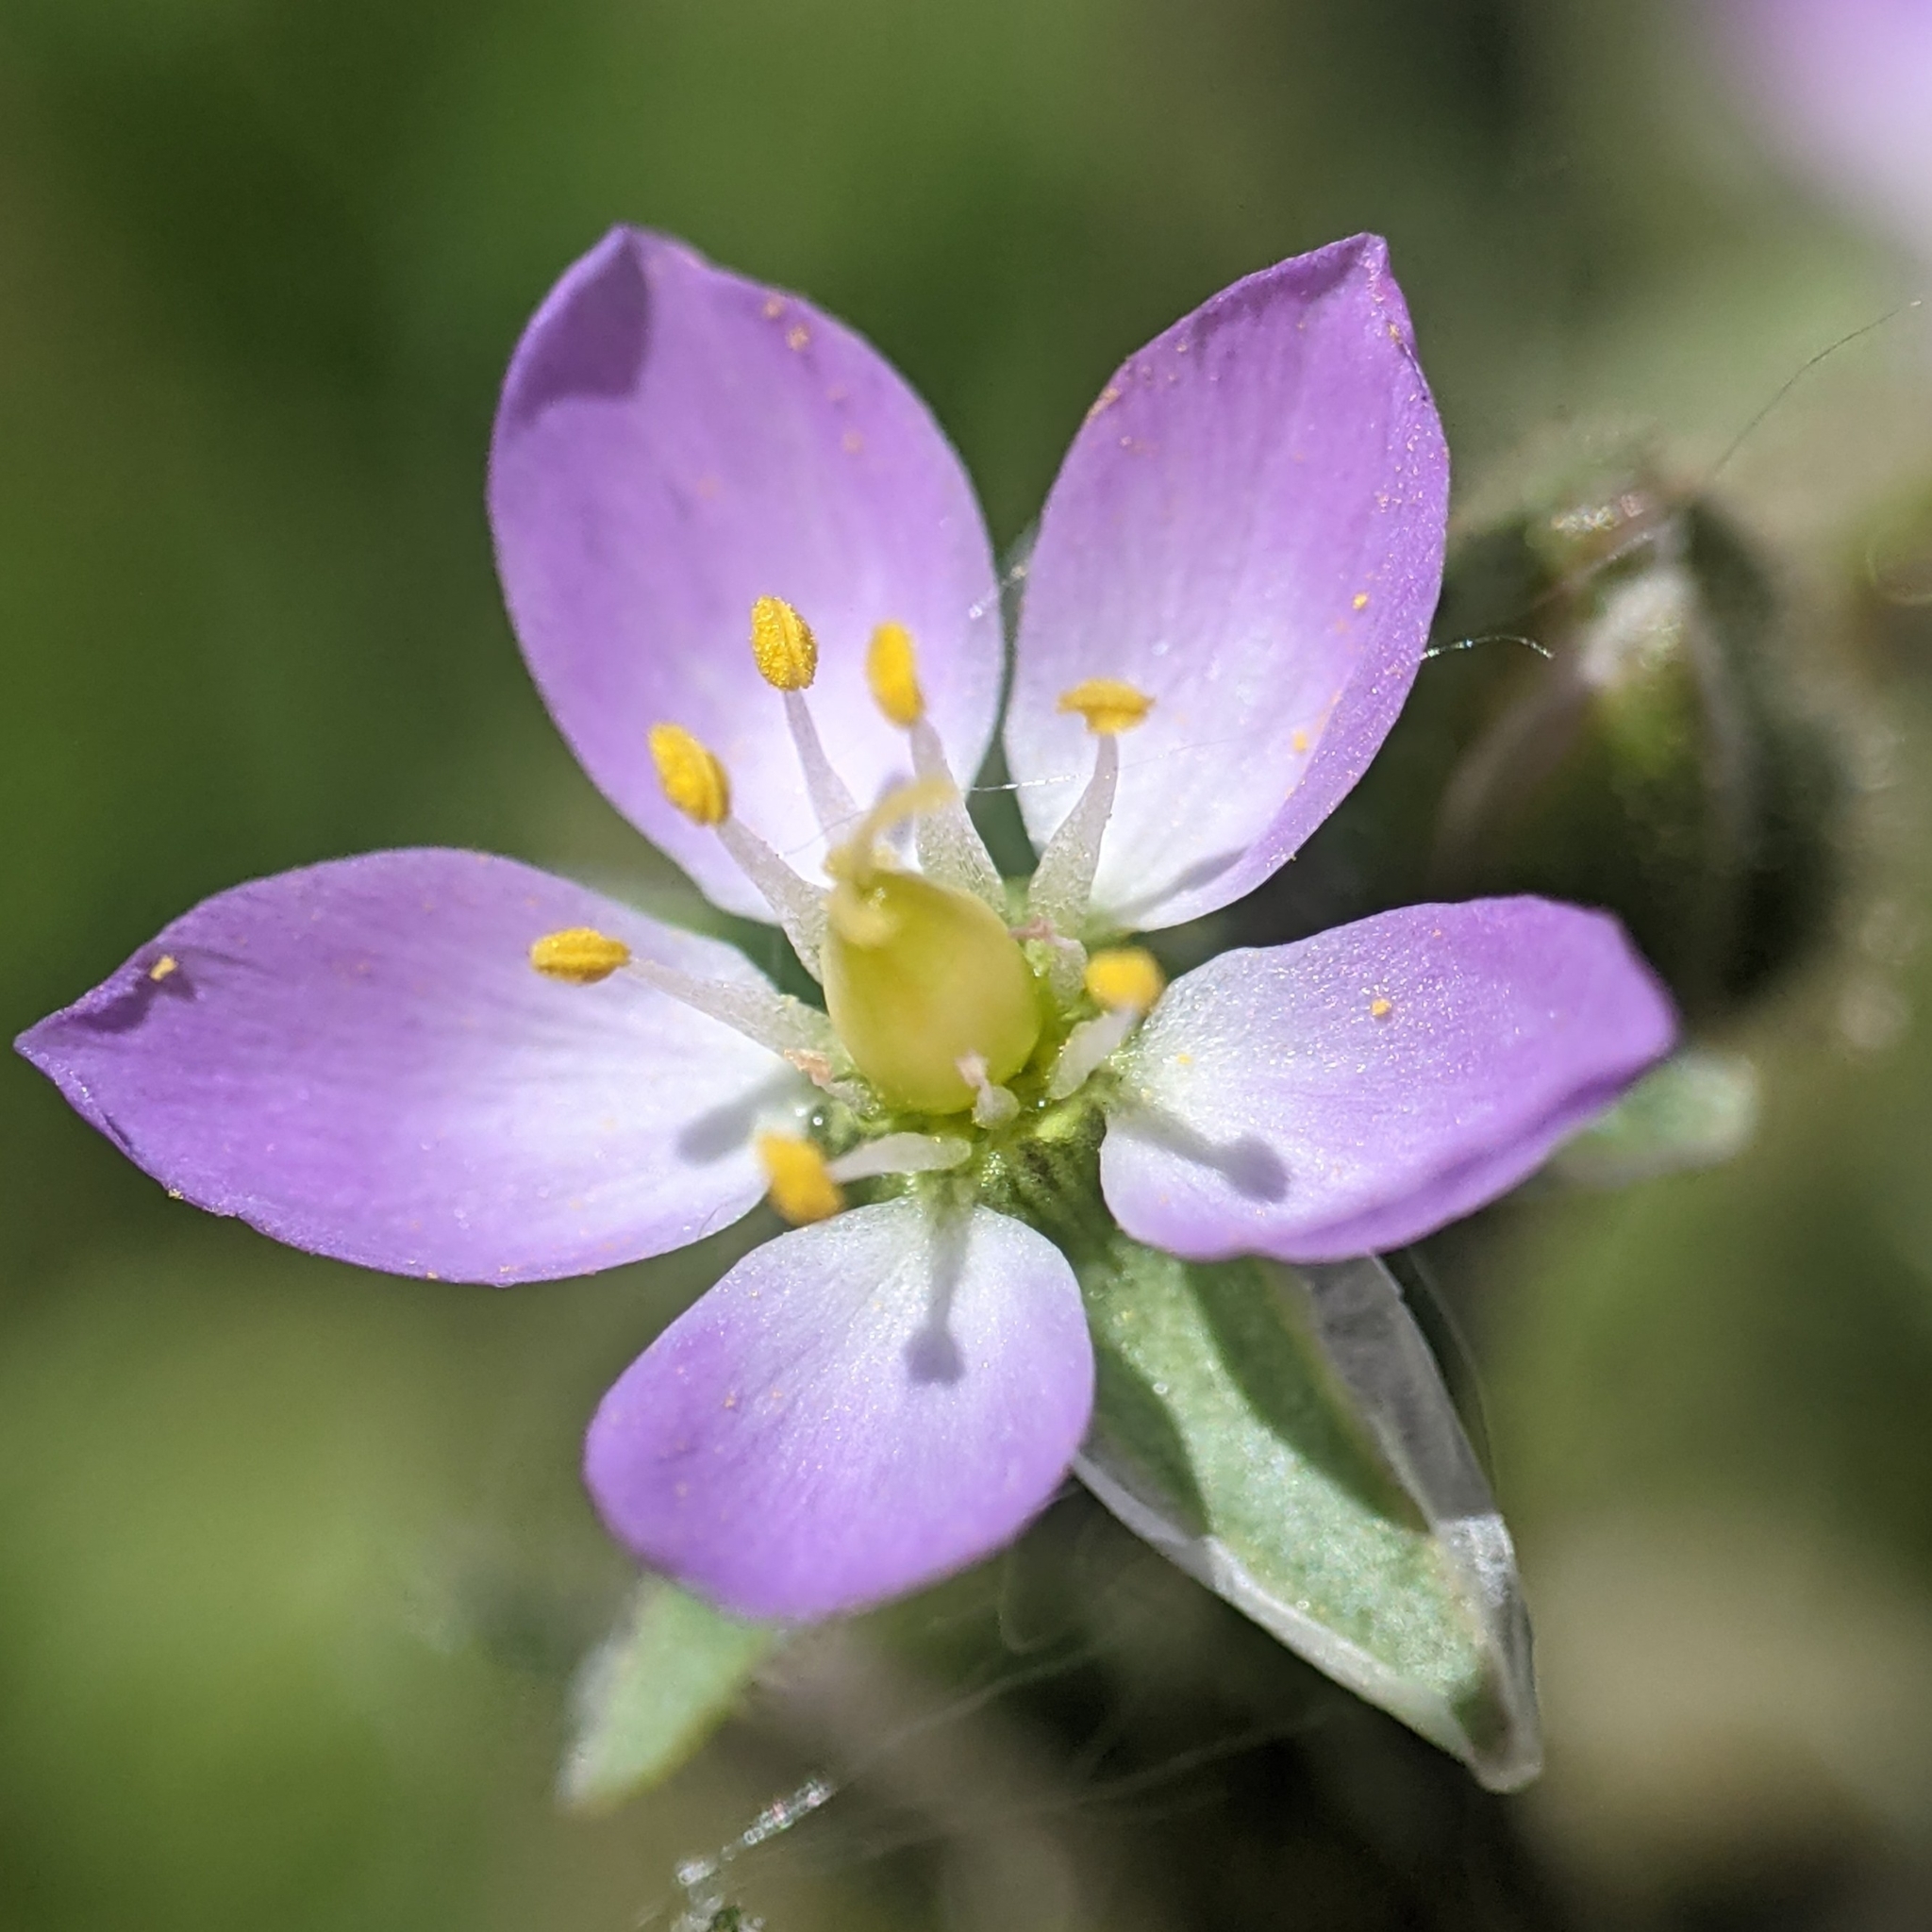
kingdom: Plantae
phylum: Tracheophyta
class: Magnoliopsida
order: Caryophyllales
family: Caryophyllaceae
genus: Spergularia
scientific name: Spergularia rubra
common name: Red sand-spurrey
